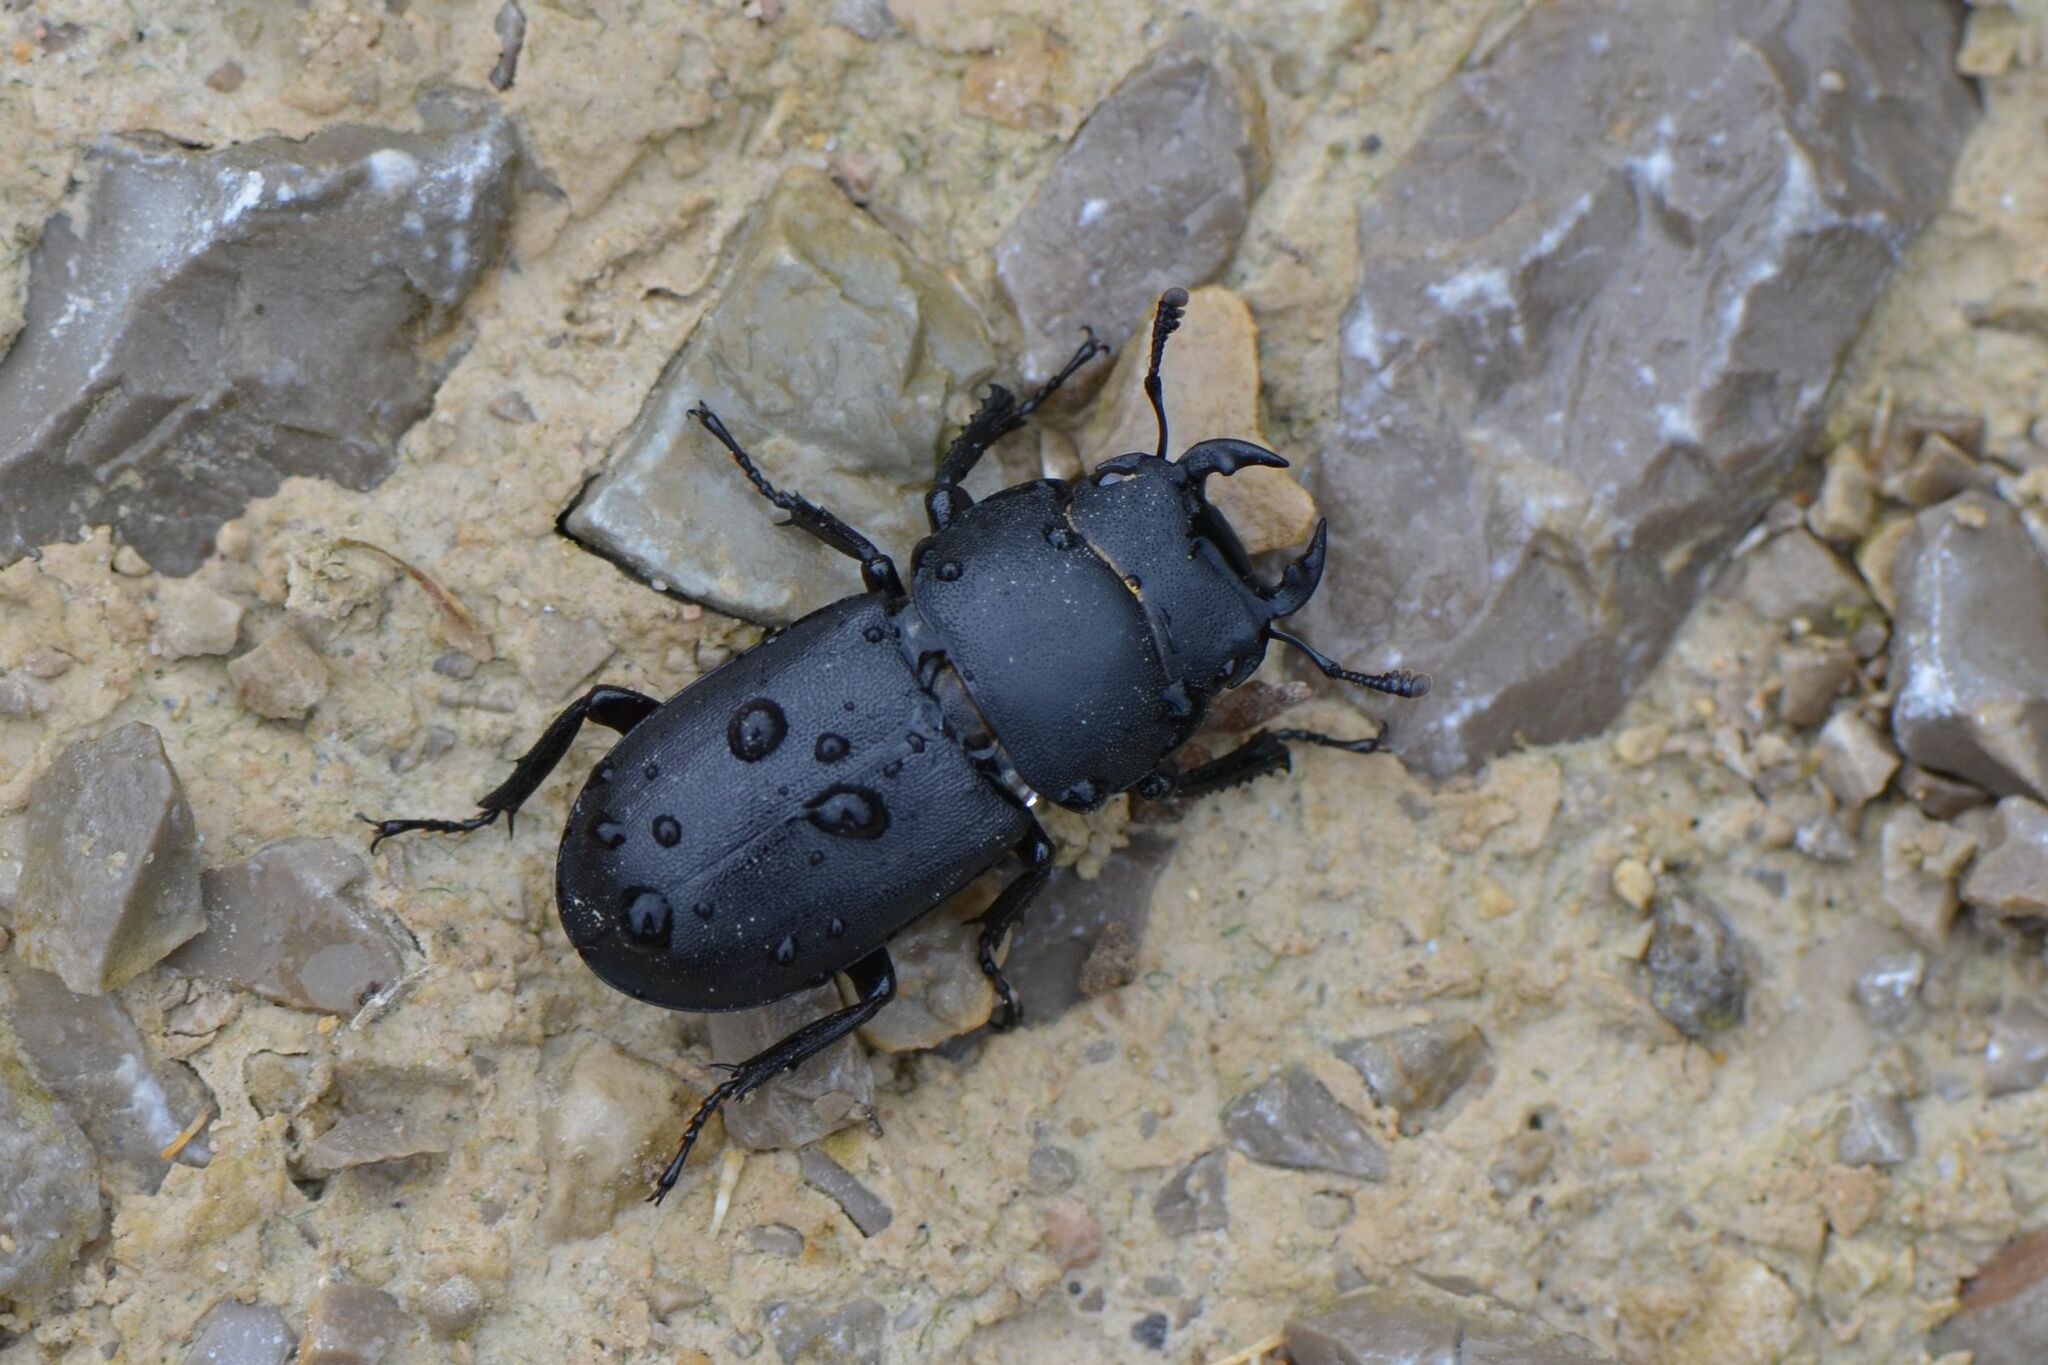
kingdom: Animalia
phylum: Arthropoda
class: Insecta
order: Coleoptera
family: Lucanidae
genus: Dorcus
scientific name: Dorcus parallelipipedus
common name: Lesser stag beetle
